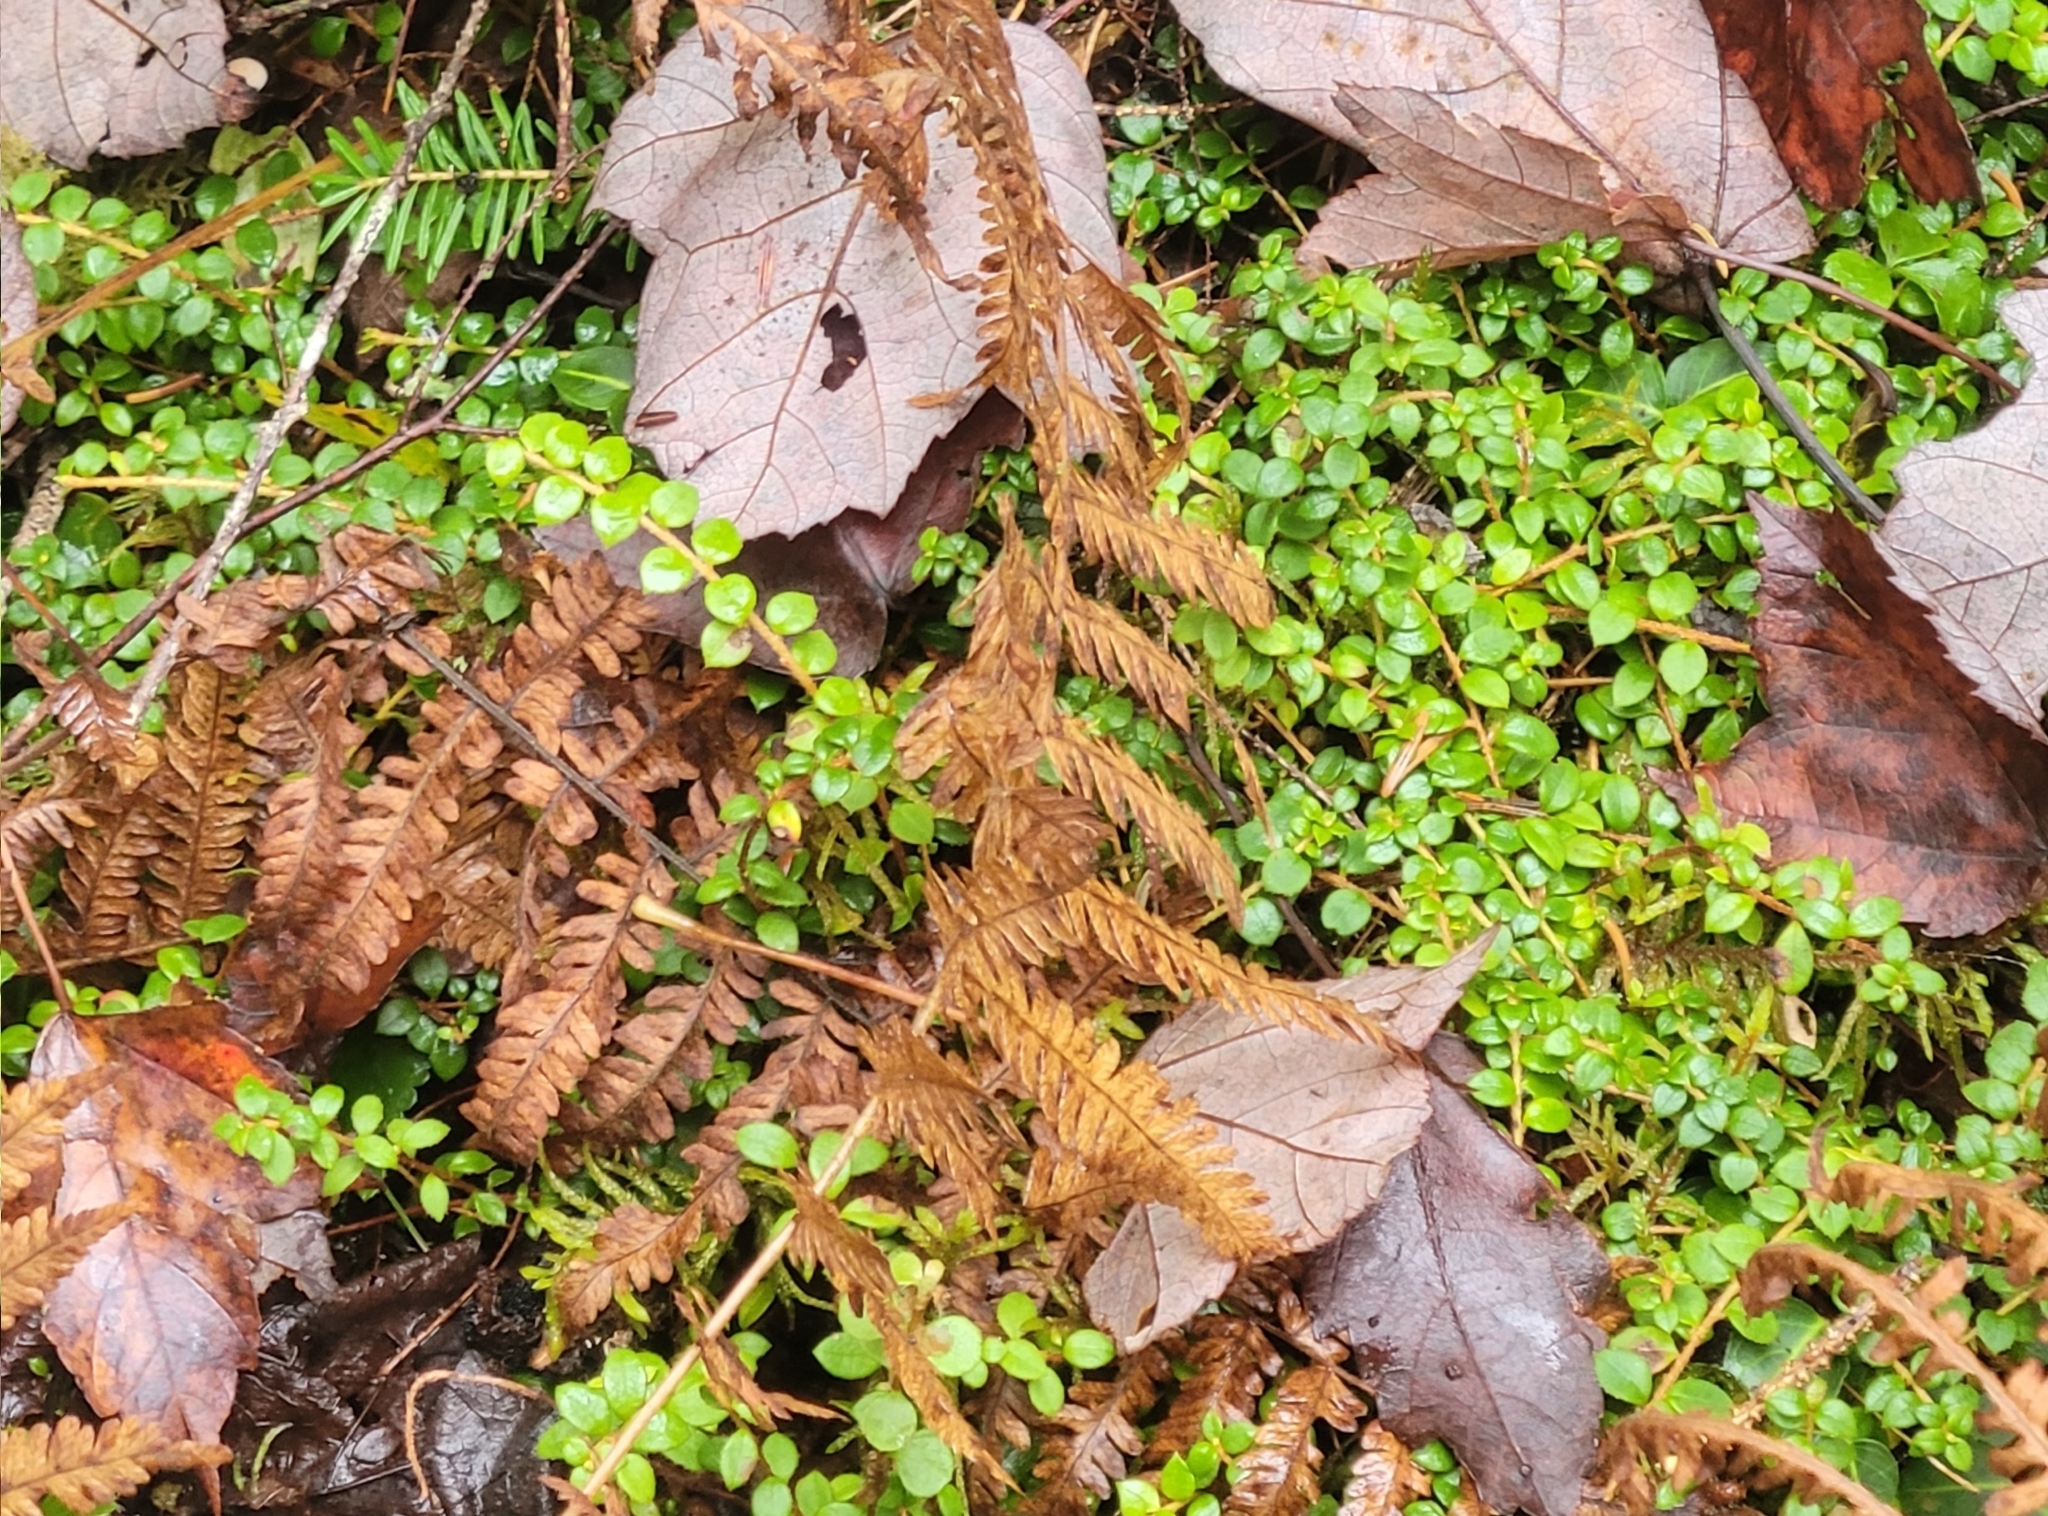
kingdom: Plantae
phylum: Tracheophyta
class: Magnoliopsida
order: Ericales
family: Ericaceae
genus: Gaultheria
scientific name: Gaultheria hispidula
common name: Cancer wintergreen
